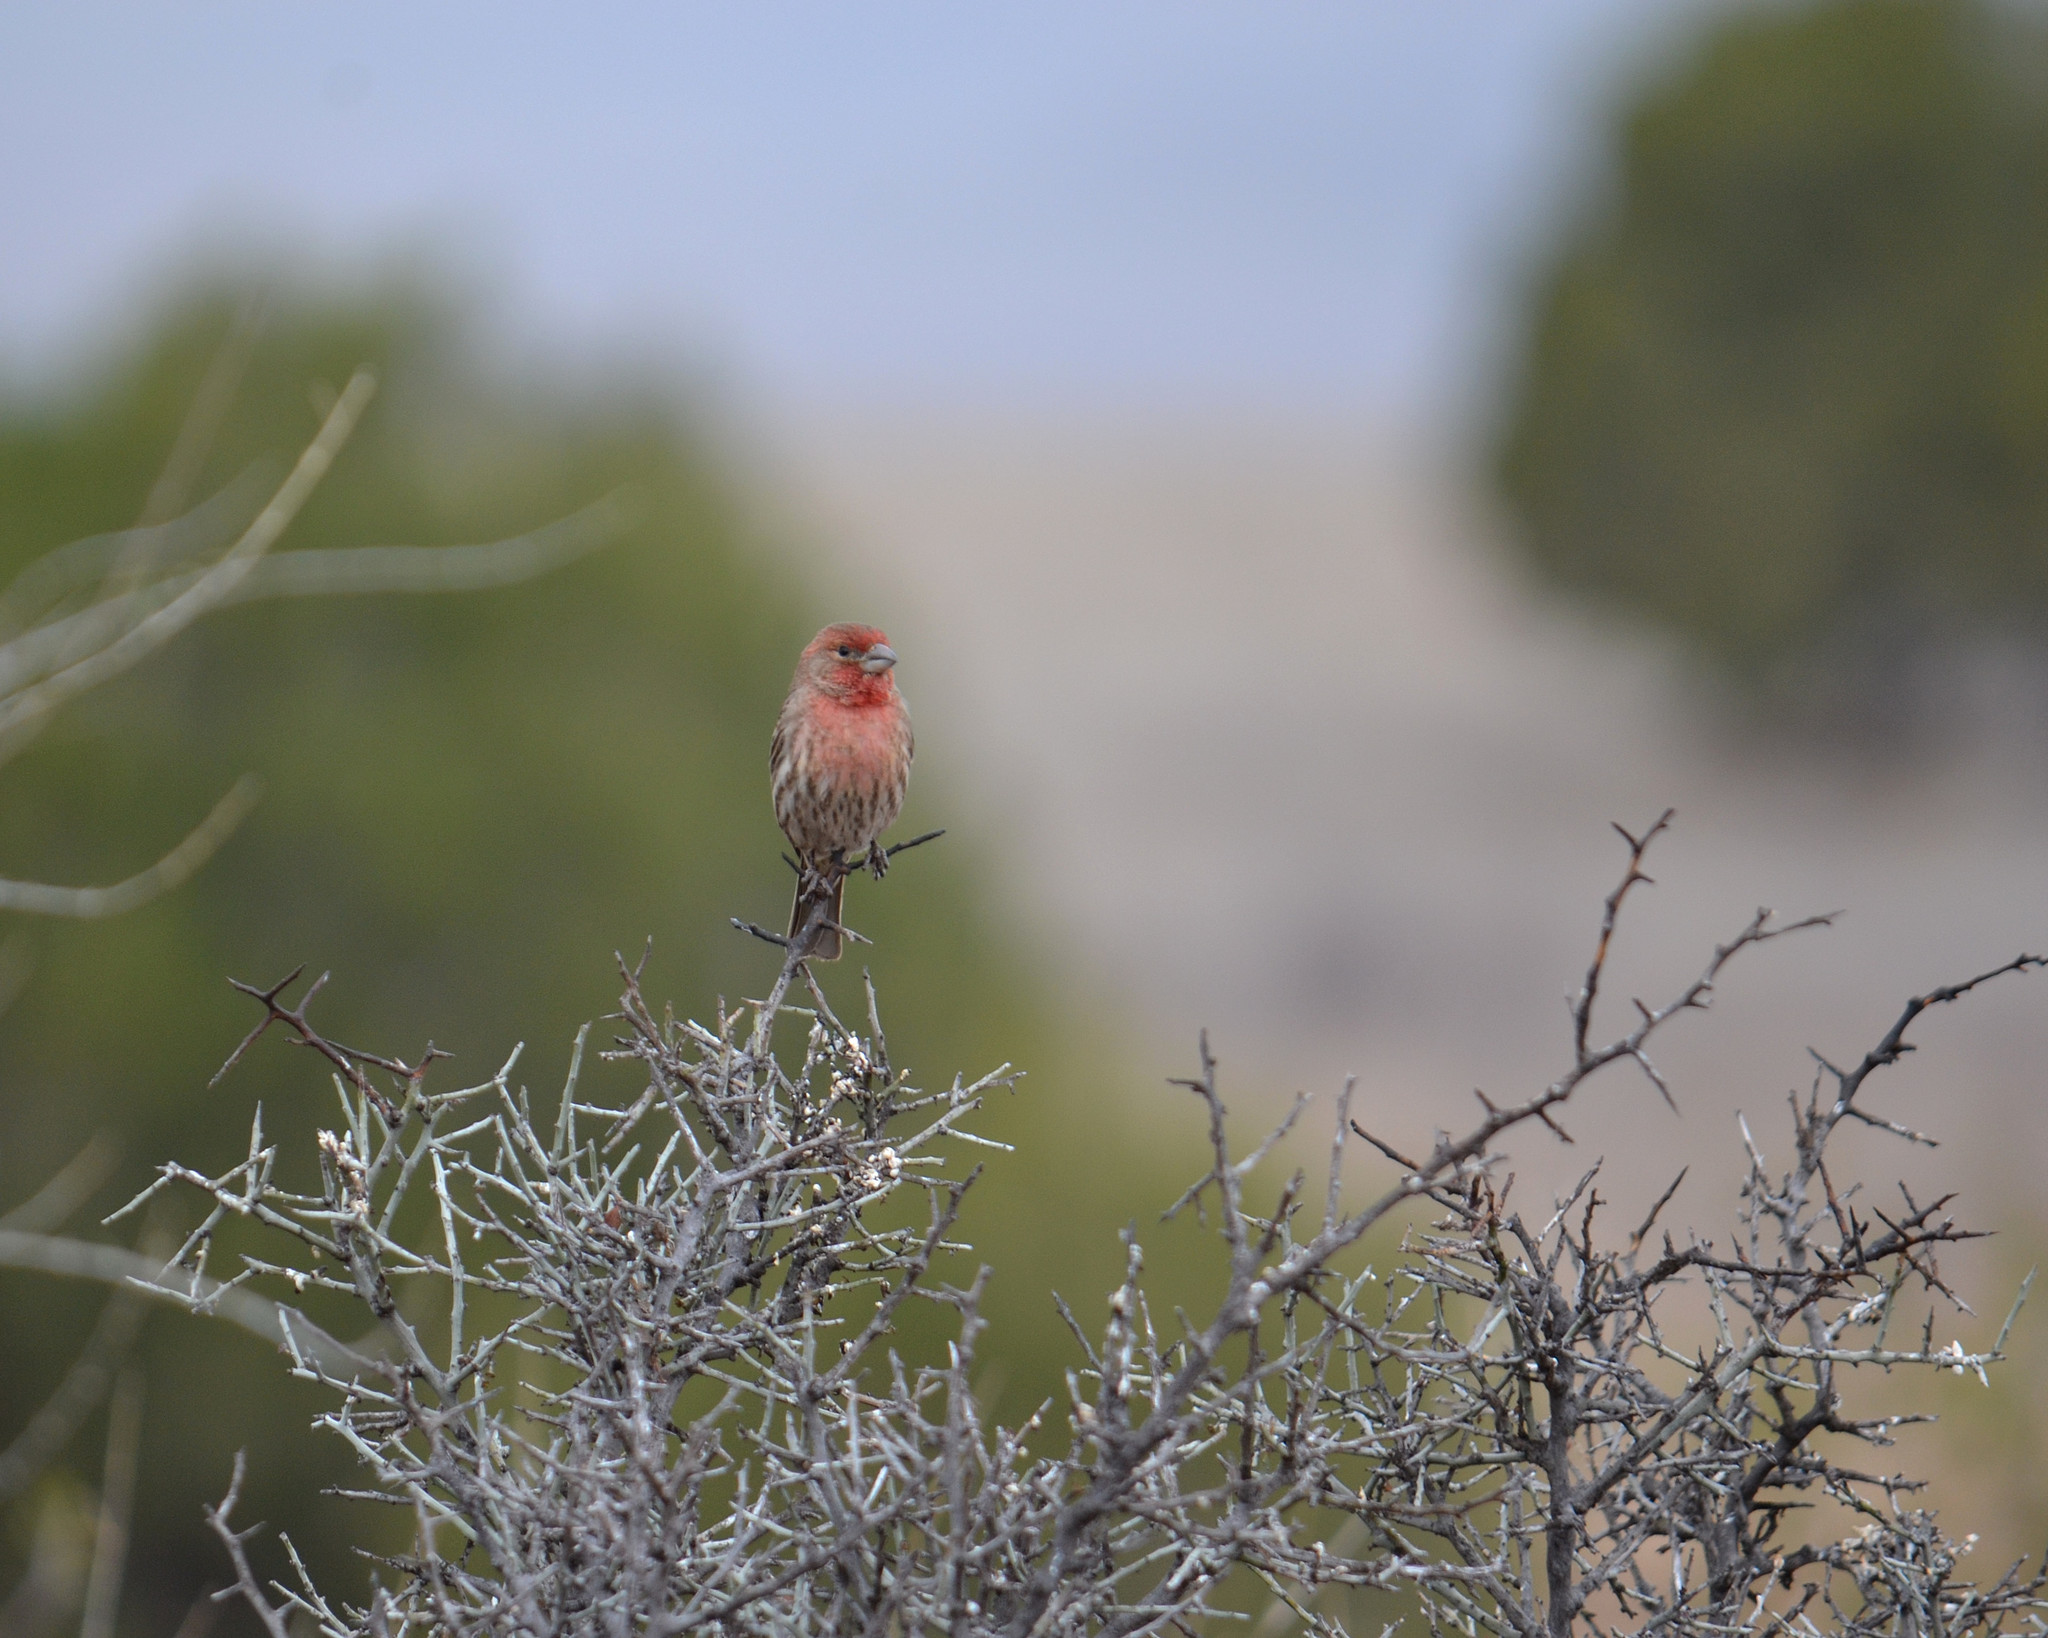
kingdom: Animalia
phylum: Chordata
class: Aves
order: Passeriformes
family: Fringillidae
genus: Haemorhous
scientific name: Haemorhous mexicanus
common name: House finch
